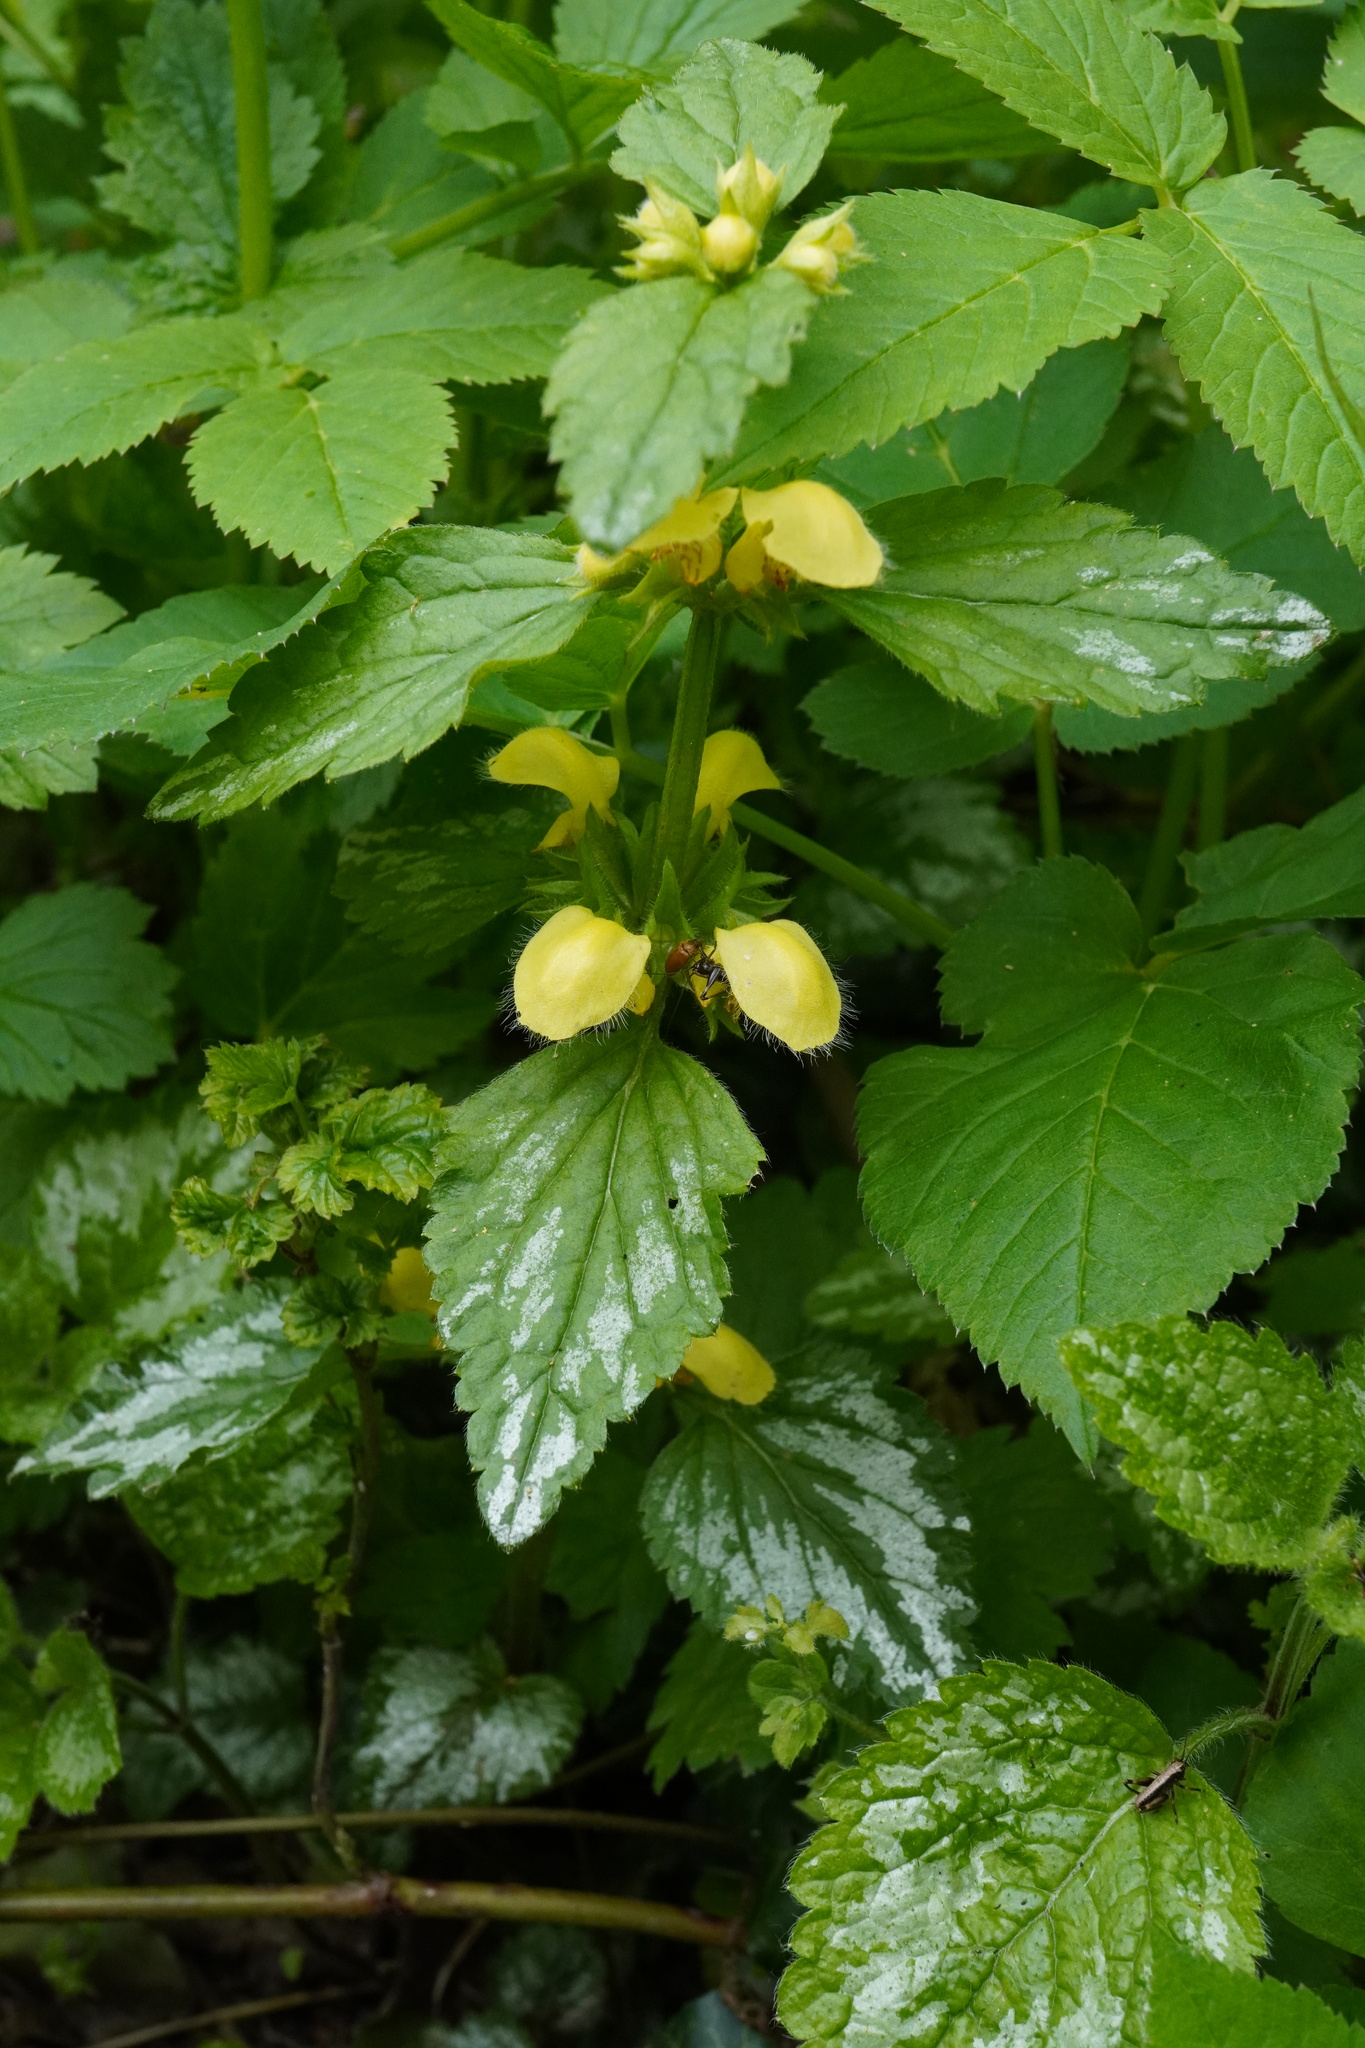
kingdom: Plantae
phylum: Tracheophyta
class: Magnoliopsida
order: Lamiales
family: Lamiaceae
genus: Lamium
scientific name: Lamium galeobdolon
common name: Yellow archangel
